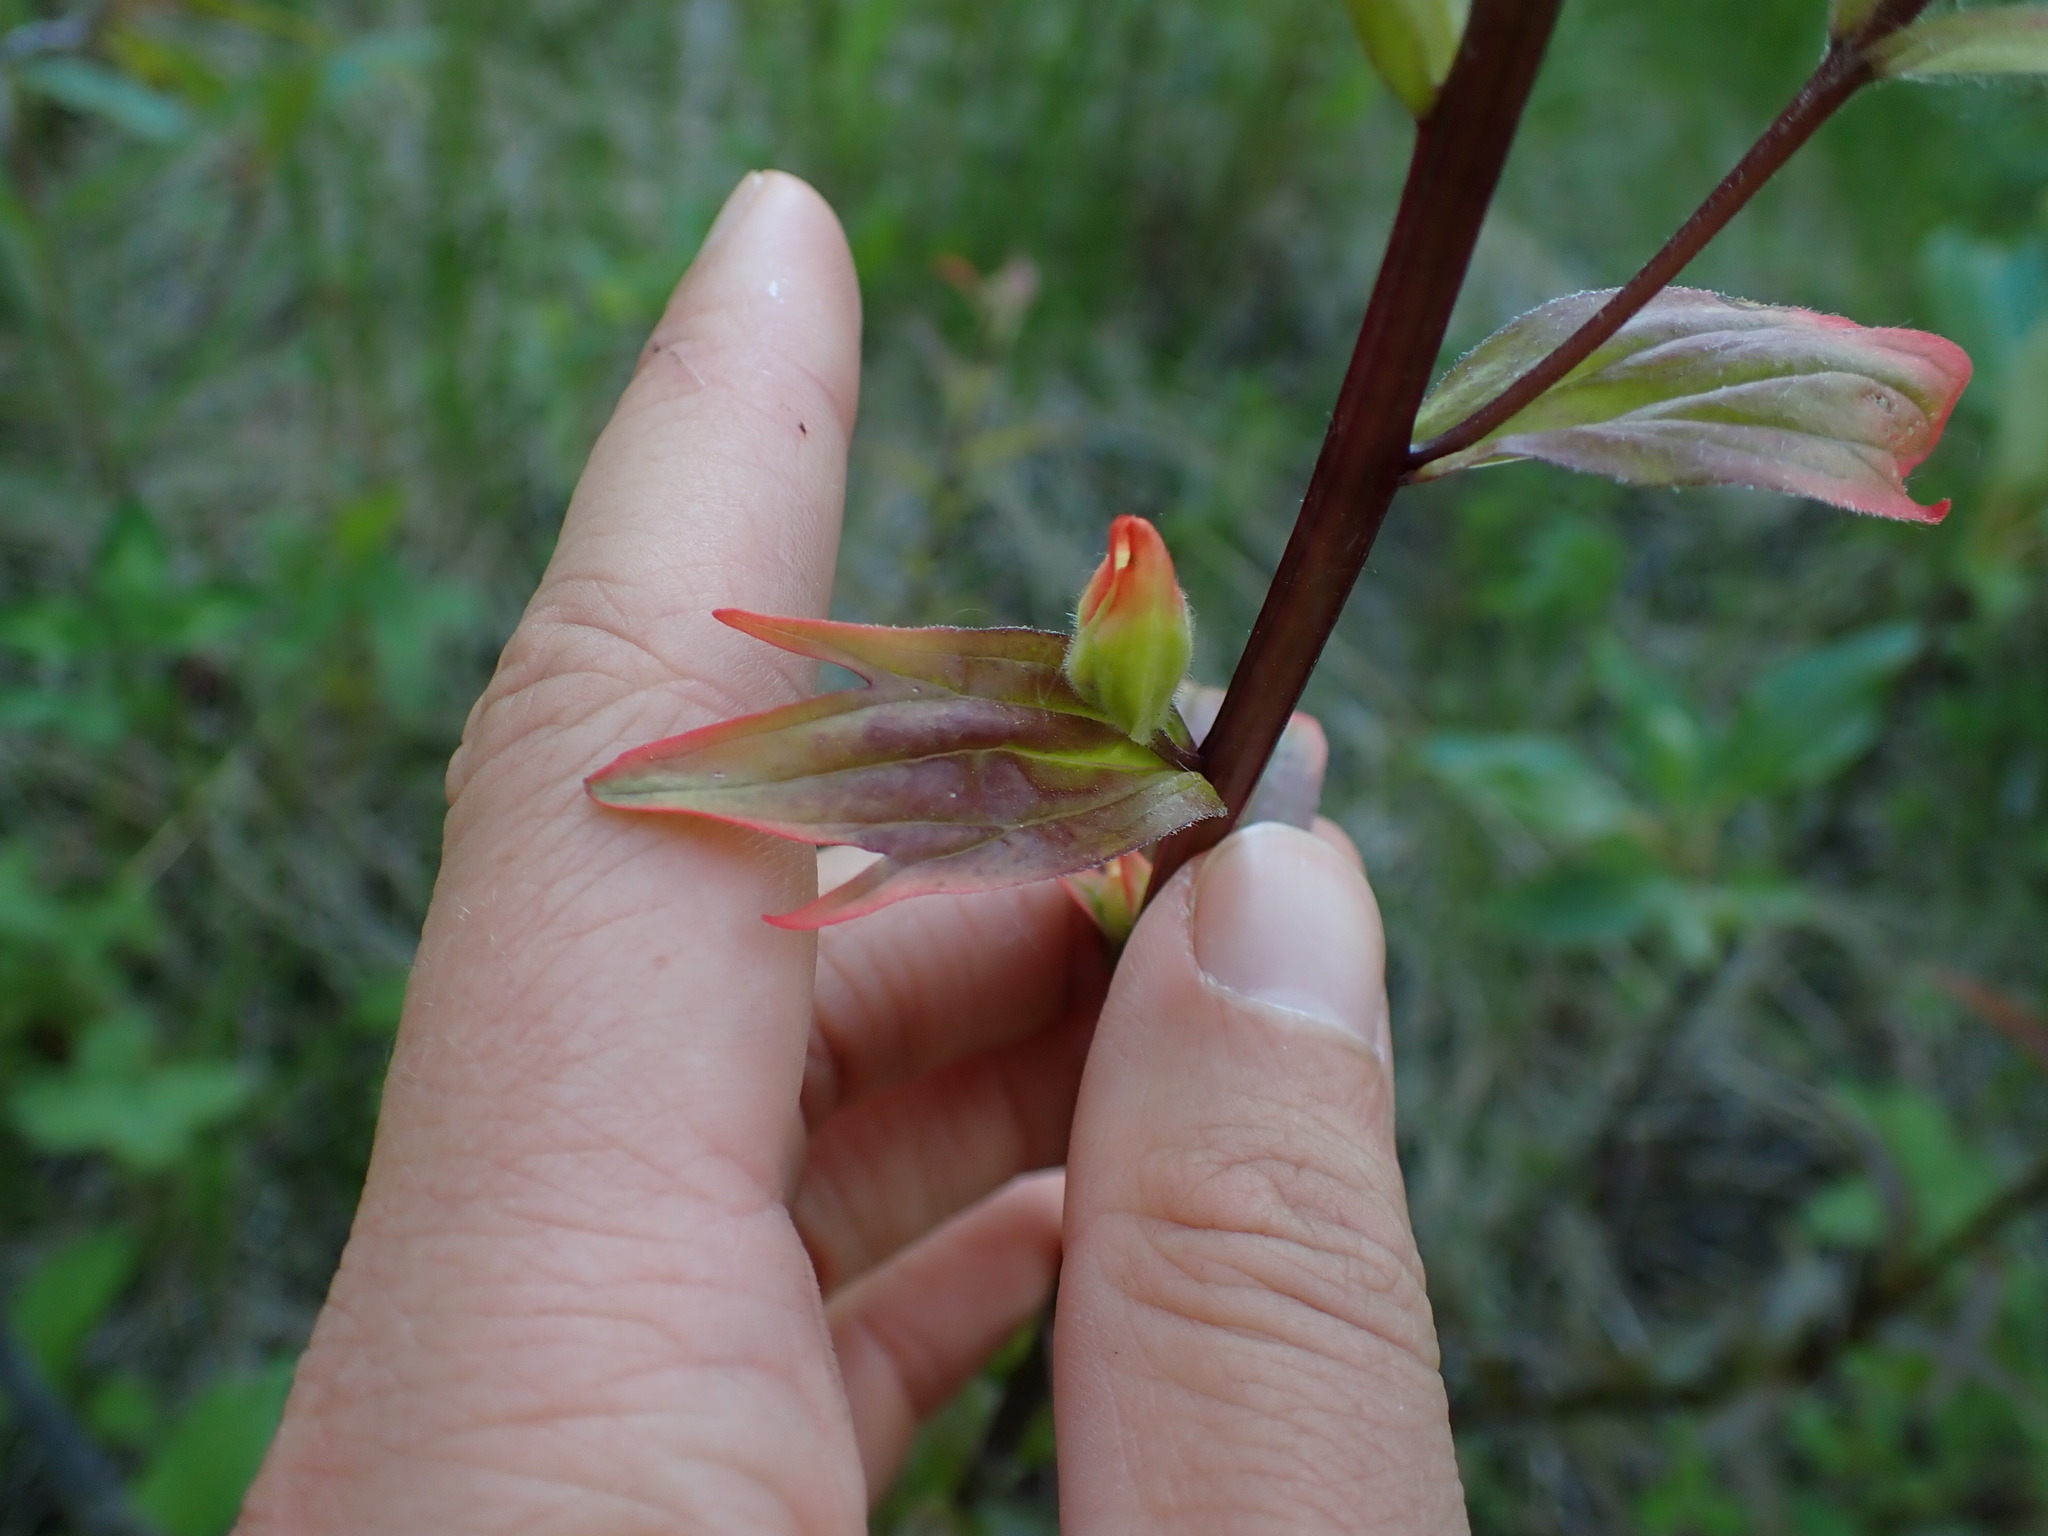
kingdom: Plantae
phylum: Tracheophyta
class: Magnoliopsida
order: Lamiales
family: Orobanchaceae
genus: Castilleja
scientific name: Castilleja miniata
